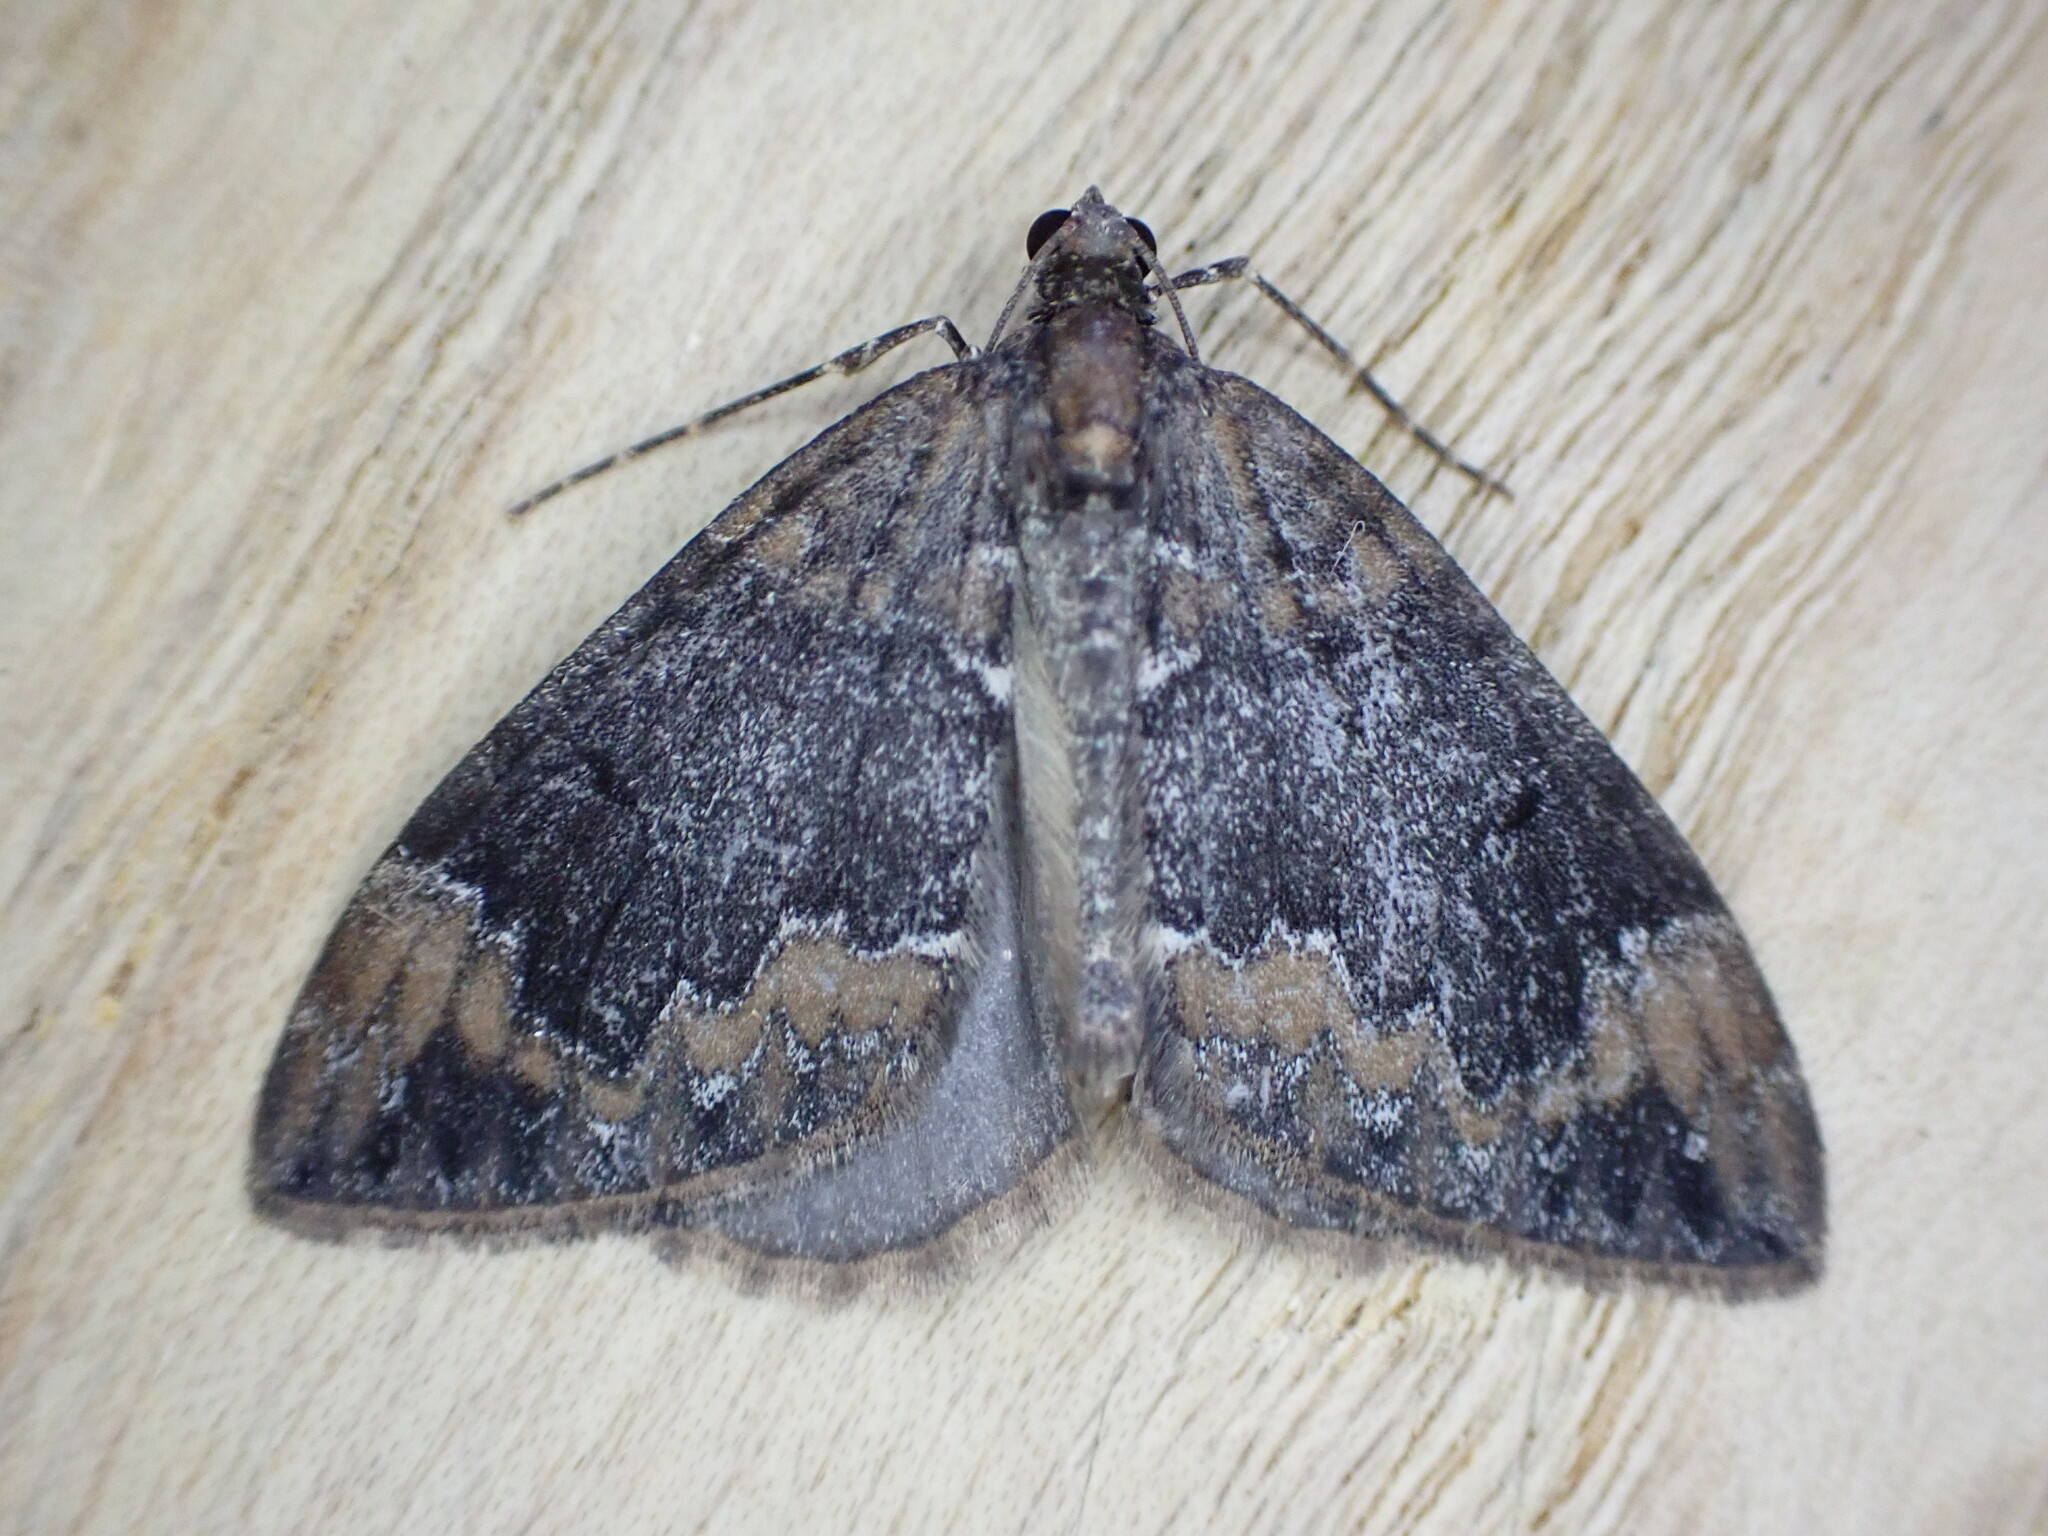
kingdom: Animalia
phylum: Arthropoda
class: Insecta
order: Lepidoptera
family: Geometridae
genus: Dysstroma
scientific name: Dysstroma truncata
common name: Common marbled carpet
